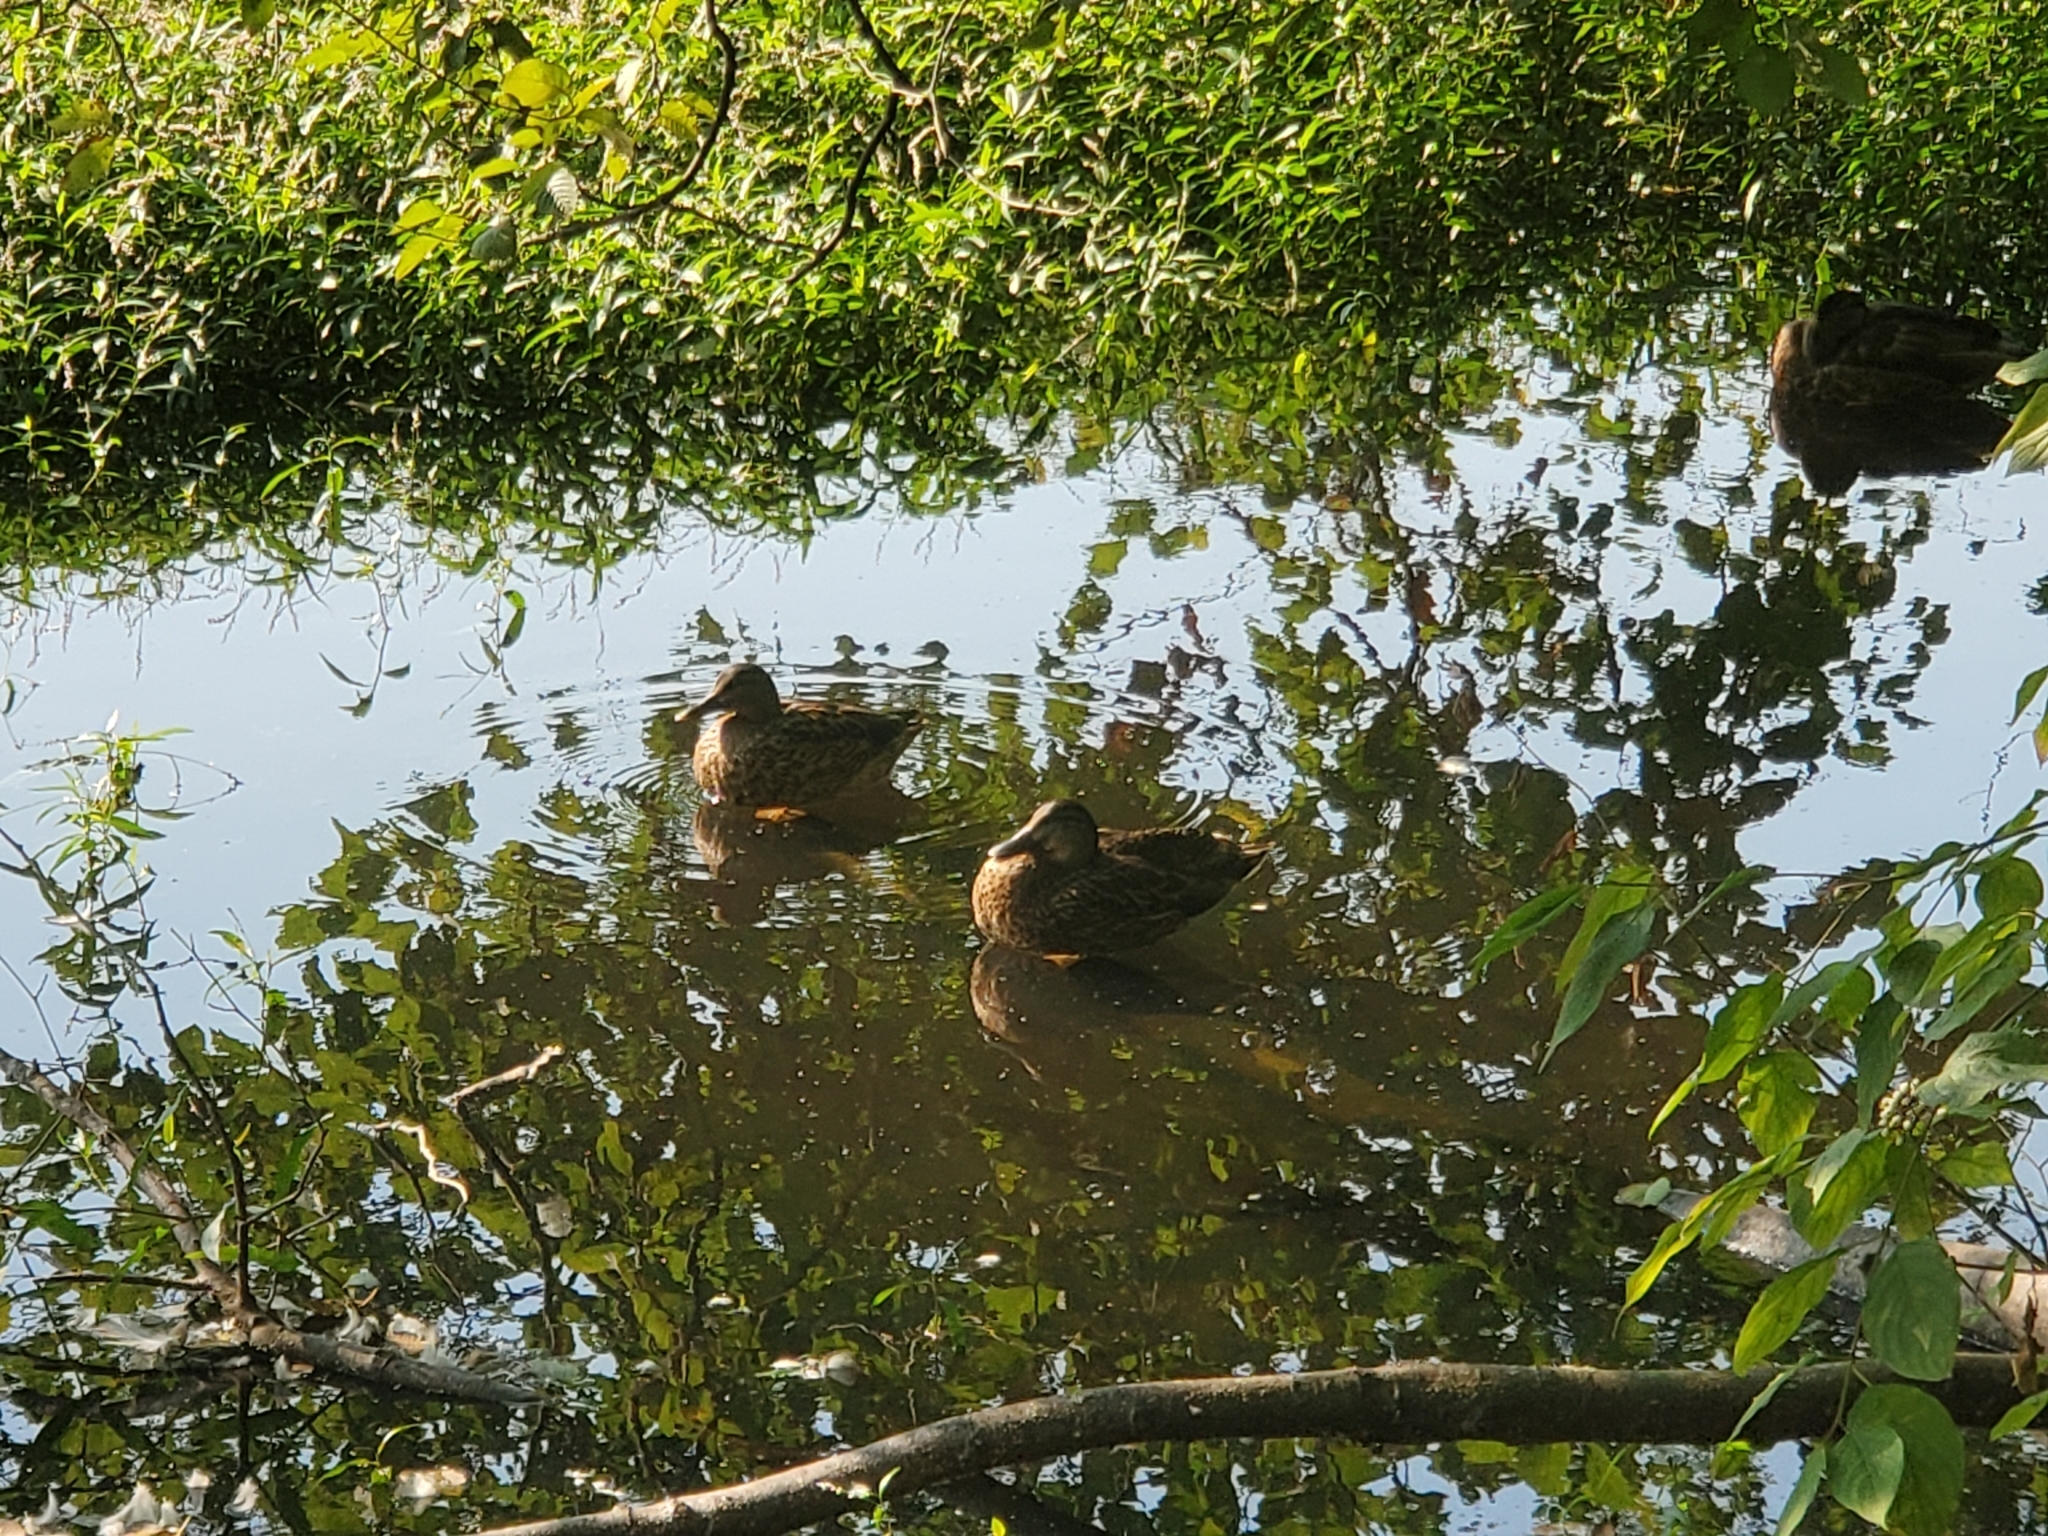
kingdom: Animalia
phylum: Chordata
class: Aves
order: Anseriformes
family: Anatidae
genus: Anas
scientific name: Anas platyrhynchos
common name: Mallard
